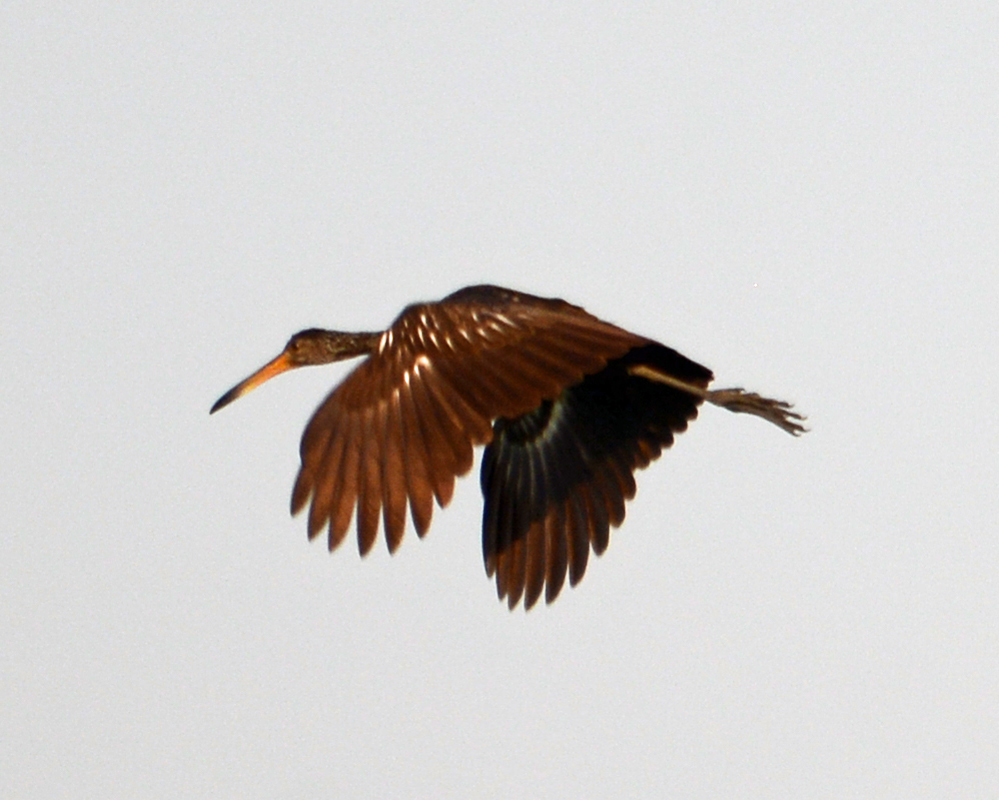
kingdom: Animalia
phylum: Chordata
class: Aves
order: Gruiformes
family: Aramidae
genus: Aramus
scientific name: Aramus guarauna
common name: Limpkin
